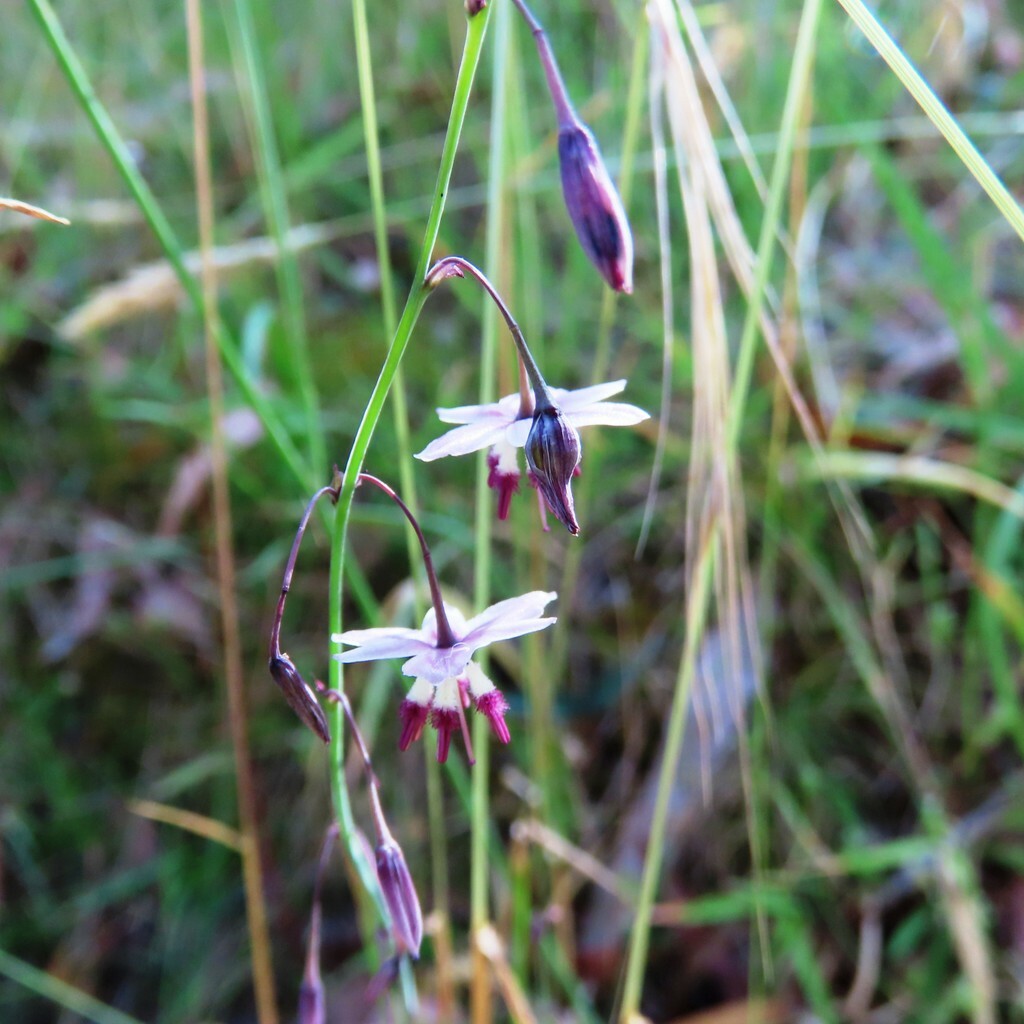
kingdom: Plantae
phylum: Tracheophyta
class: Liliopsida
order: Asparagales
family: Asparagaceae
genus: Arthropodium
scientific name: Arthropodium milleflorum
